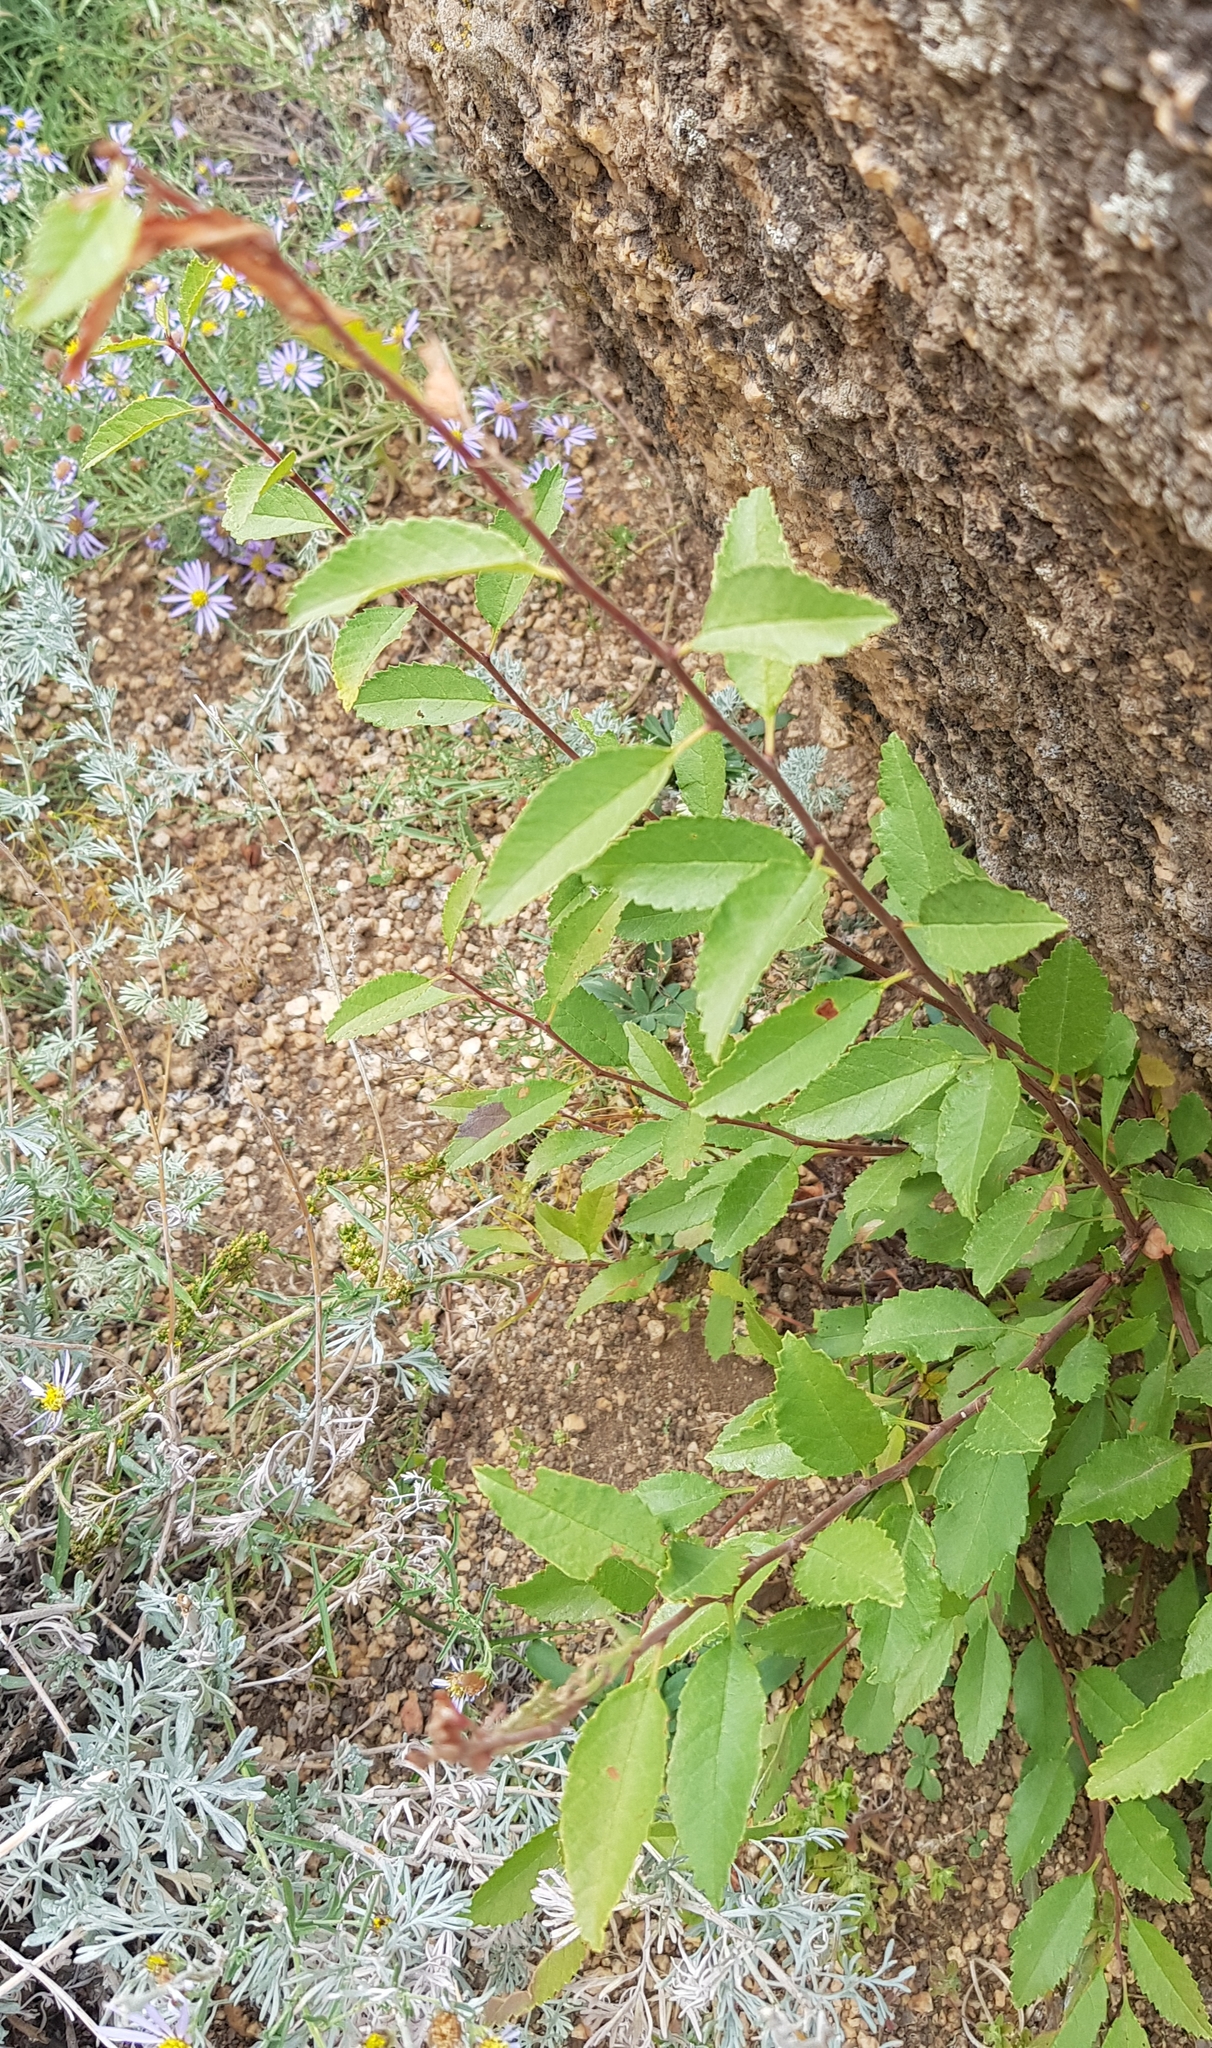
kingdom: Plantae
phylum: Tracheophyta
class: Magnoliopsida
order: Rosales
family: Rosaceae
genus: Prunus
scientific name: Prunus pedunculata
